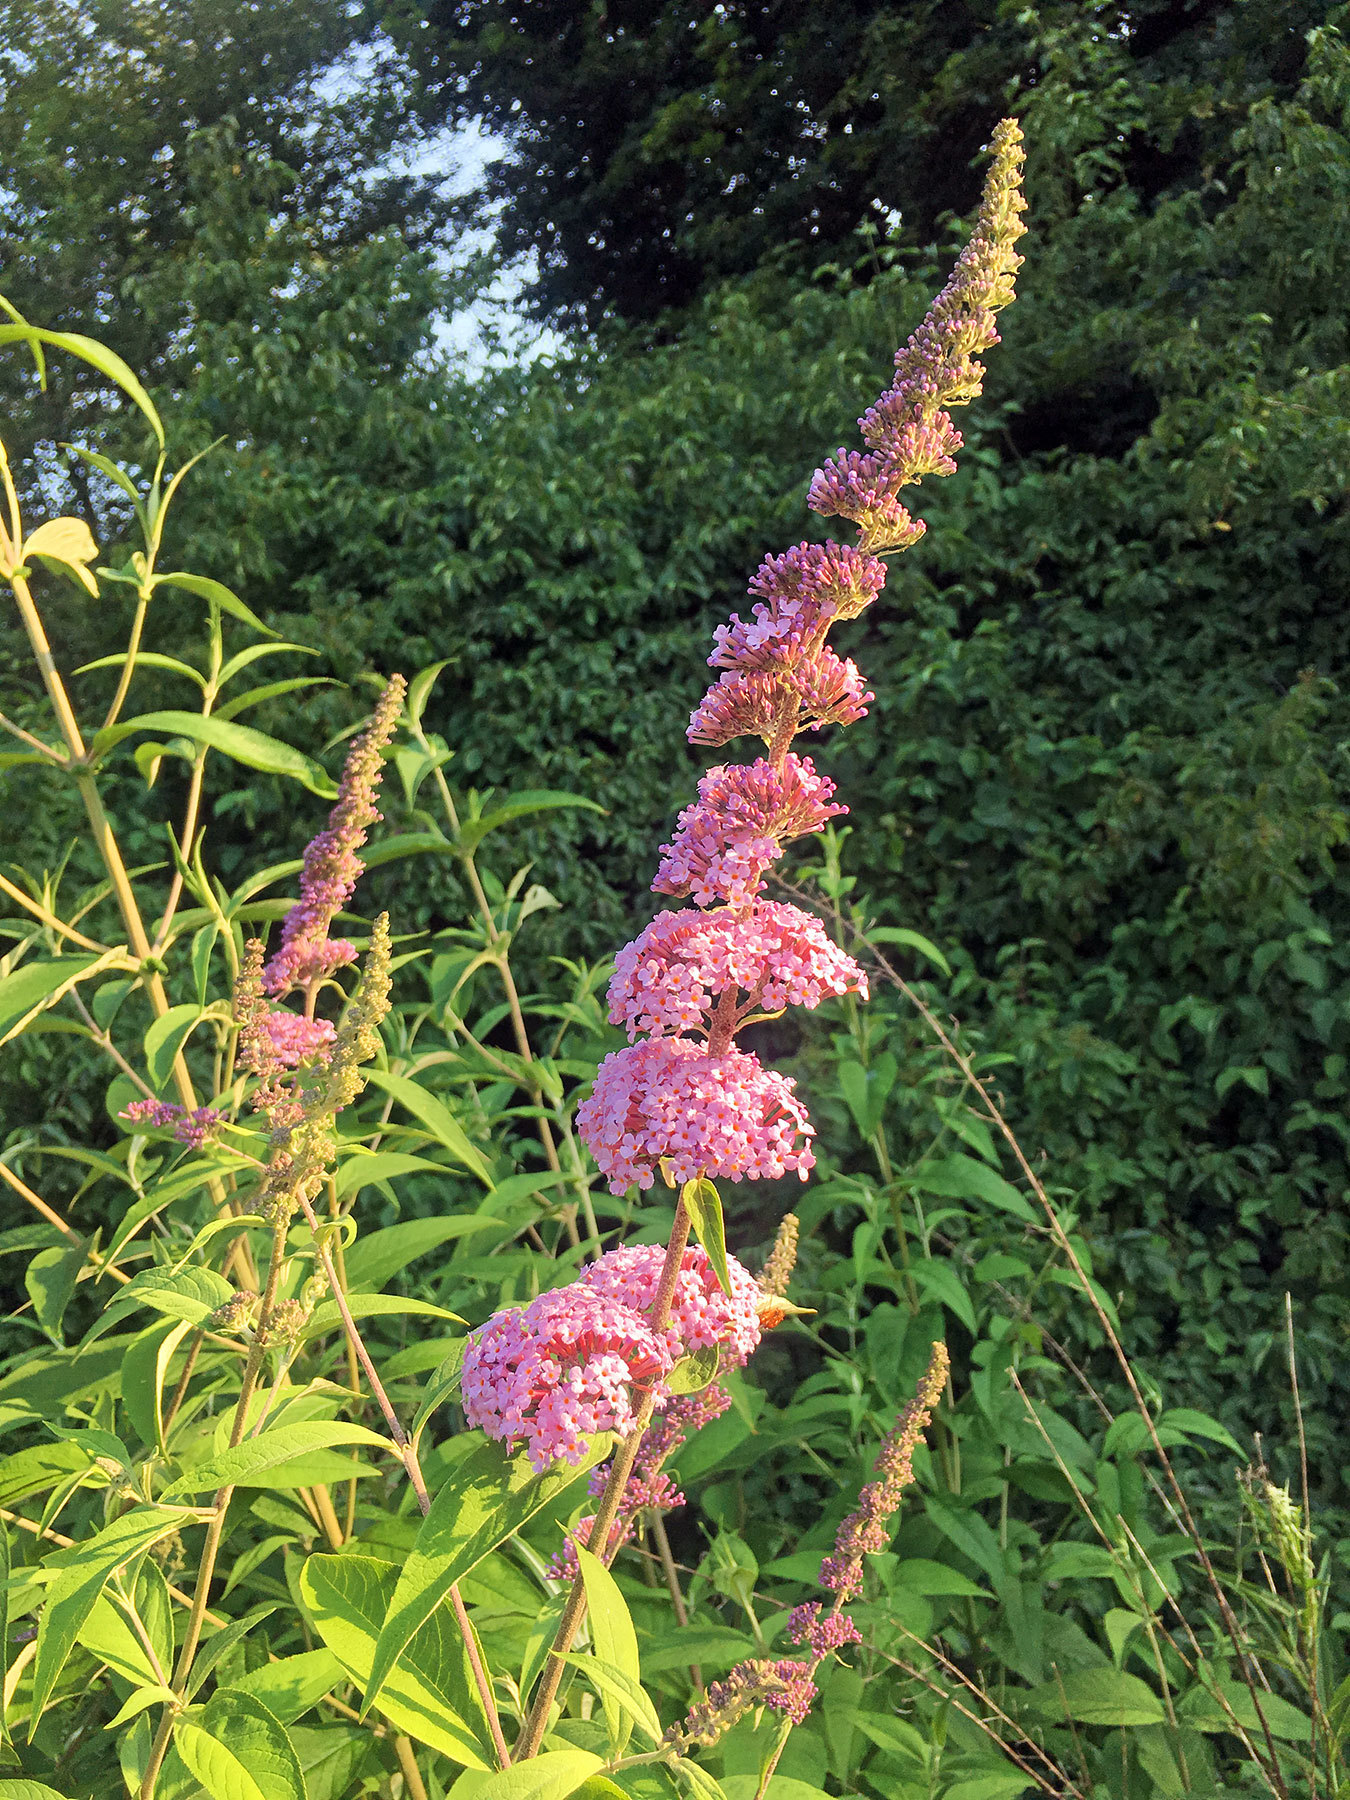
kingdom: Plantae
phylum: Tracheophyta
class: Magnoliopsida
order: Lamiales
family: Scrophulariaceae
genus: Buddleja
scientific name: Buddleja davidii
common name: Butterfly-bush
